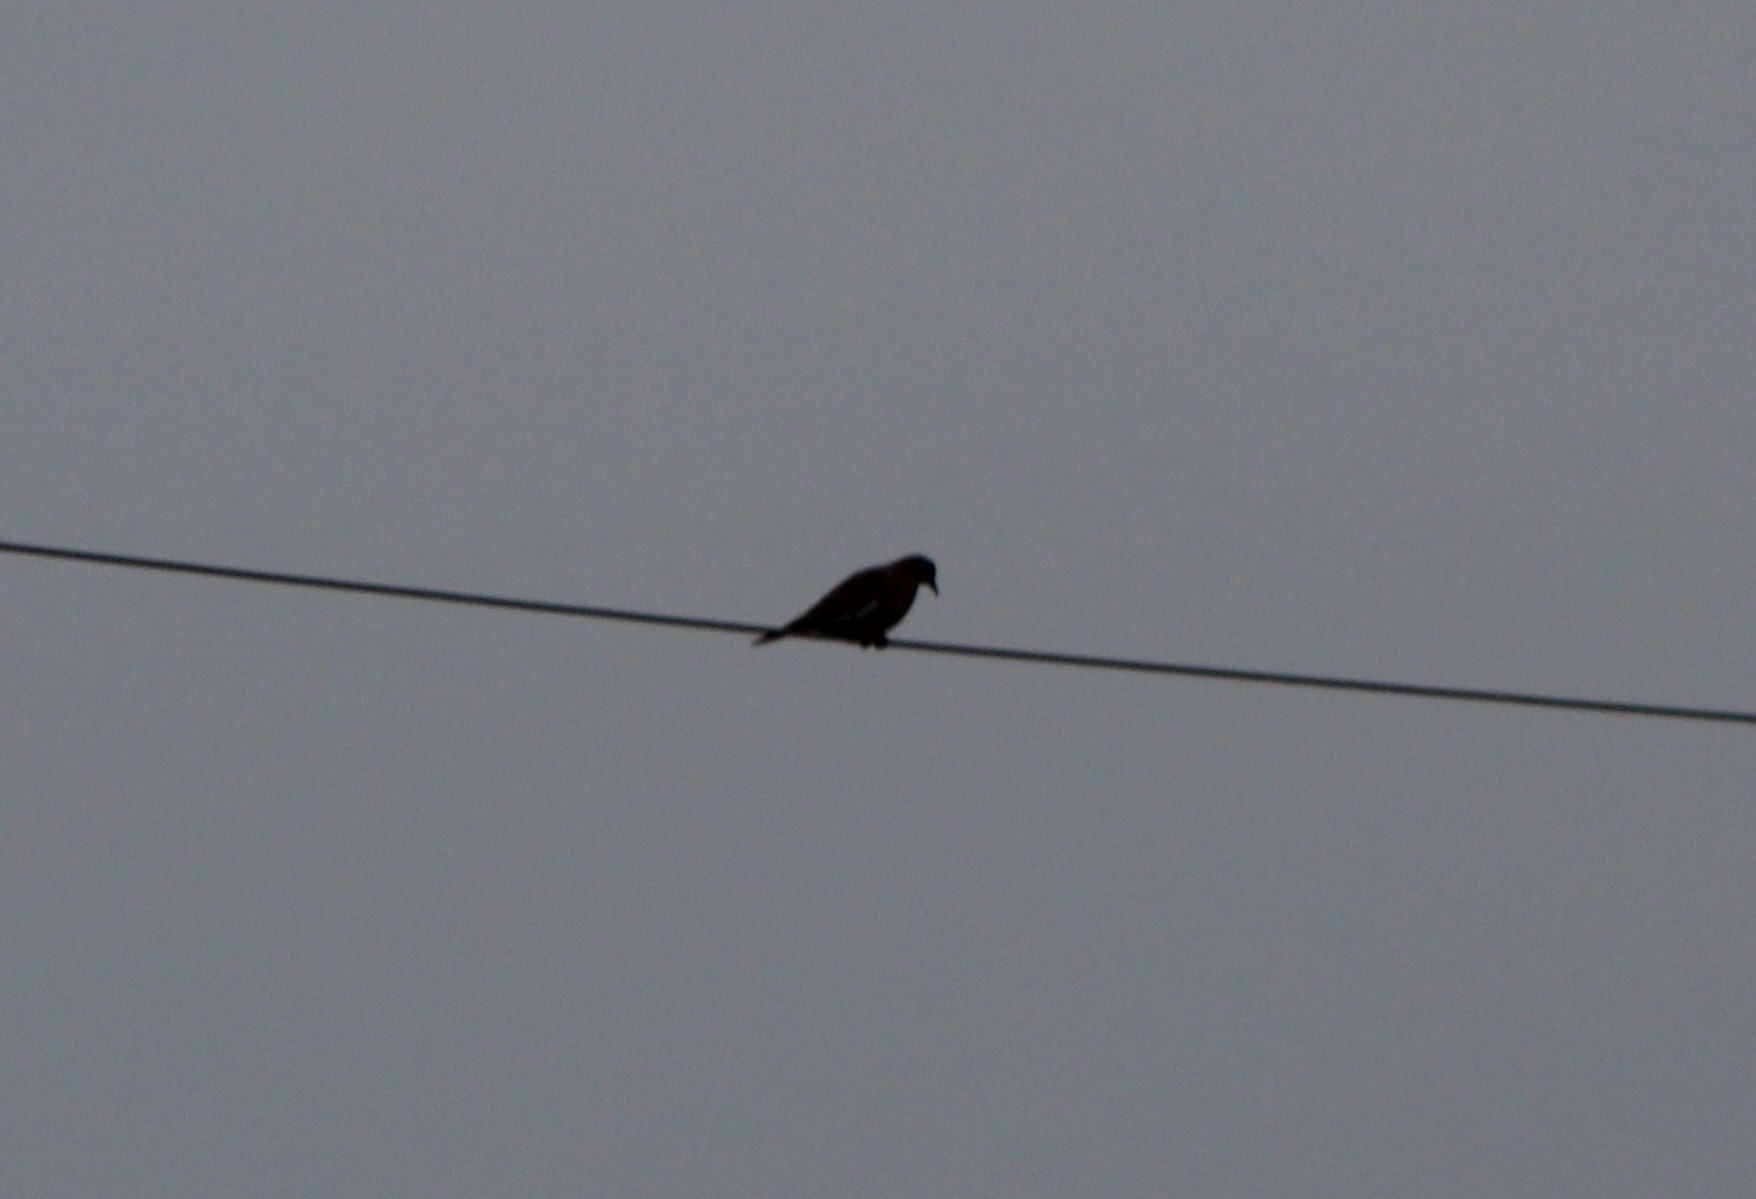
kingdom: Animalia
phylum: Chordata
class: Aves
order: Columbiformes
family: Columbidae
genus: Zenaida
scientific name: Zenaida asiatica
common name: White-winged dove
